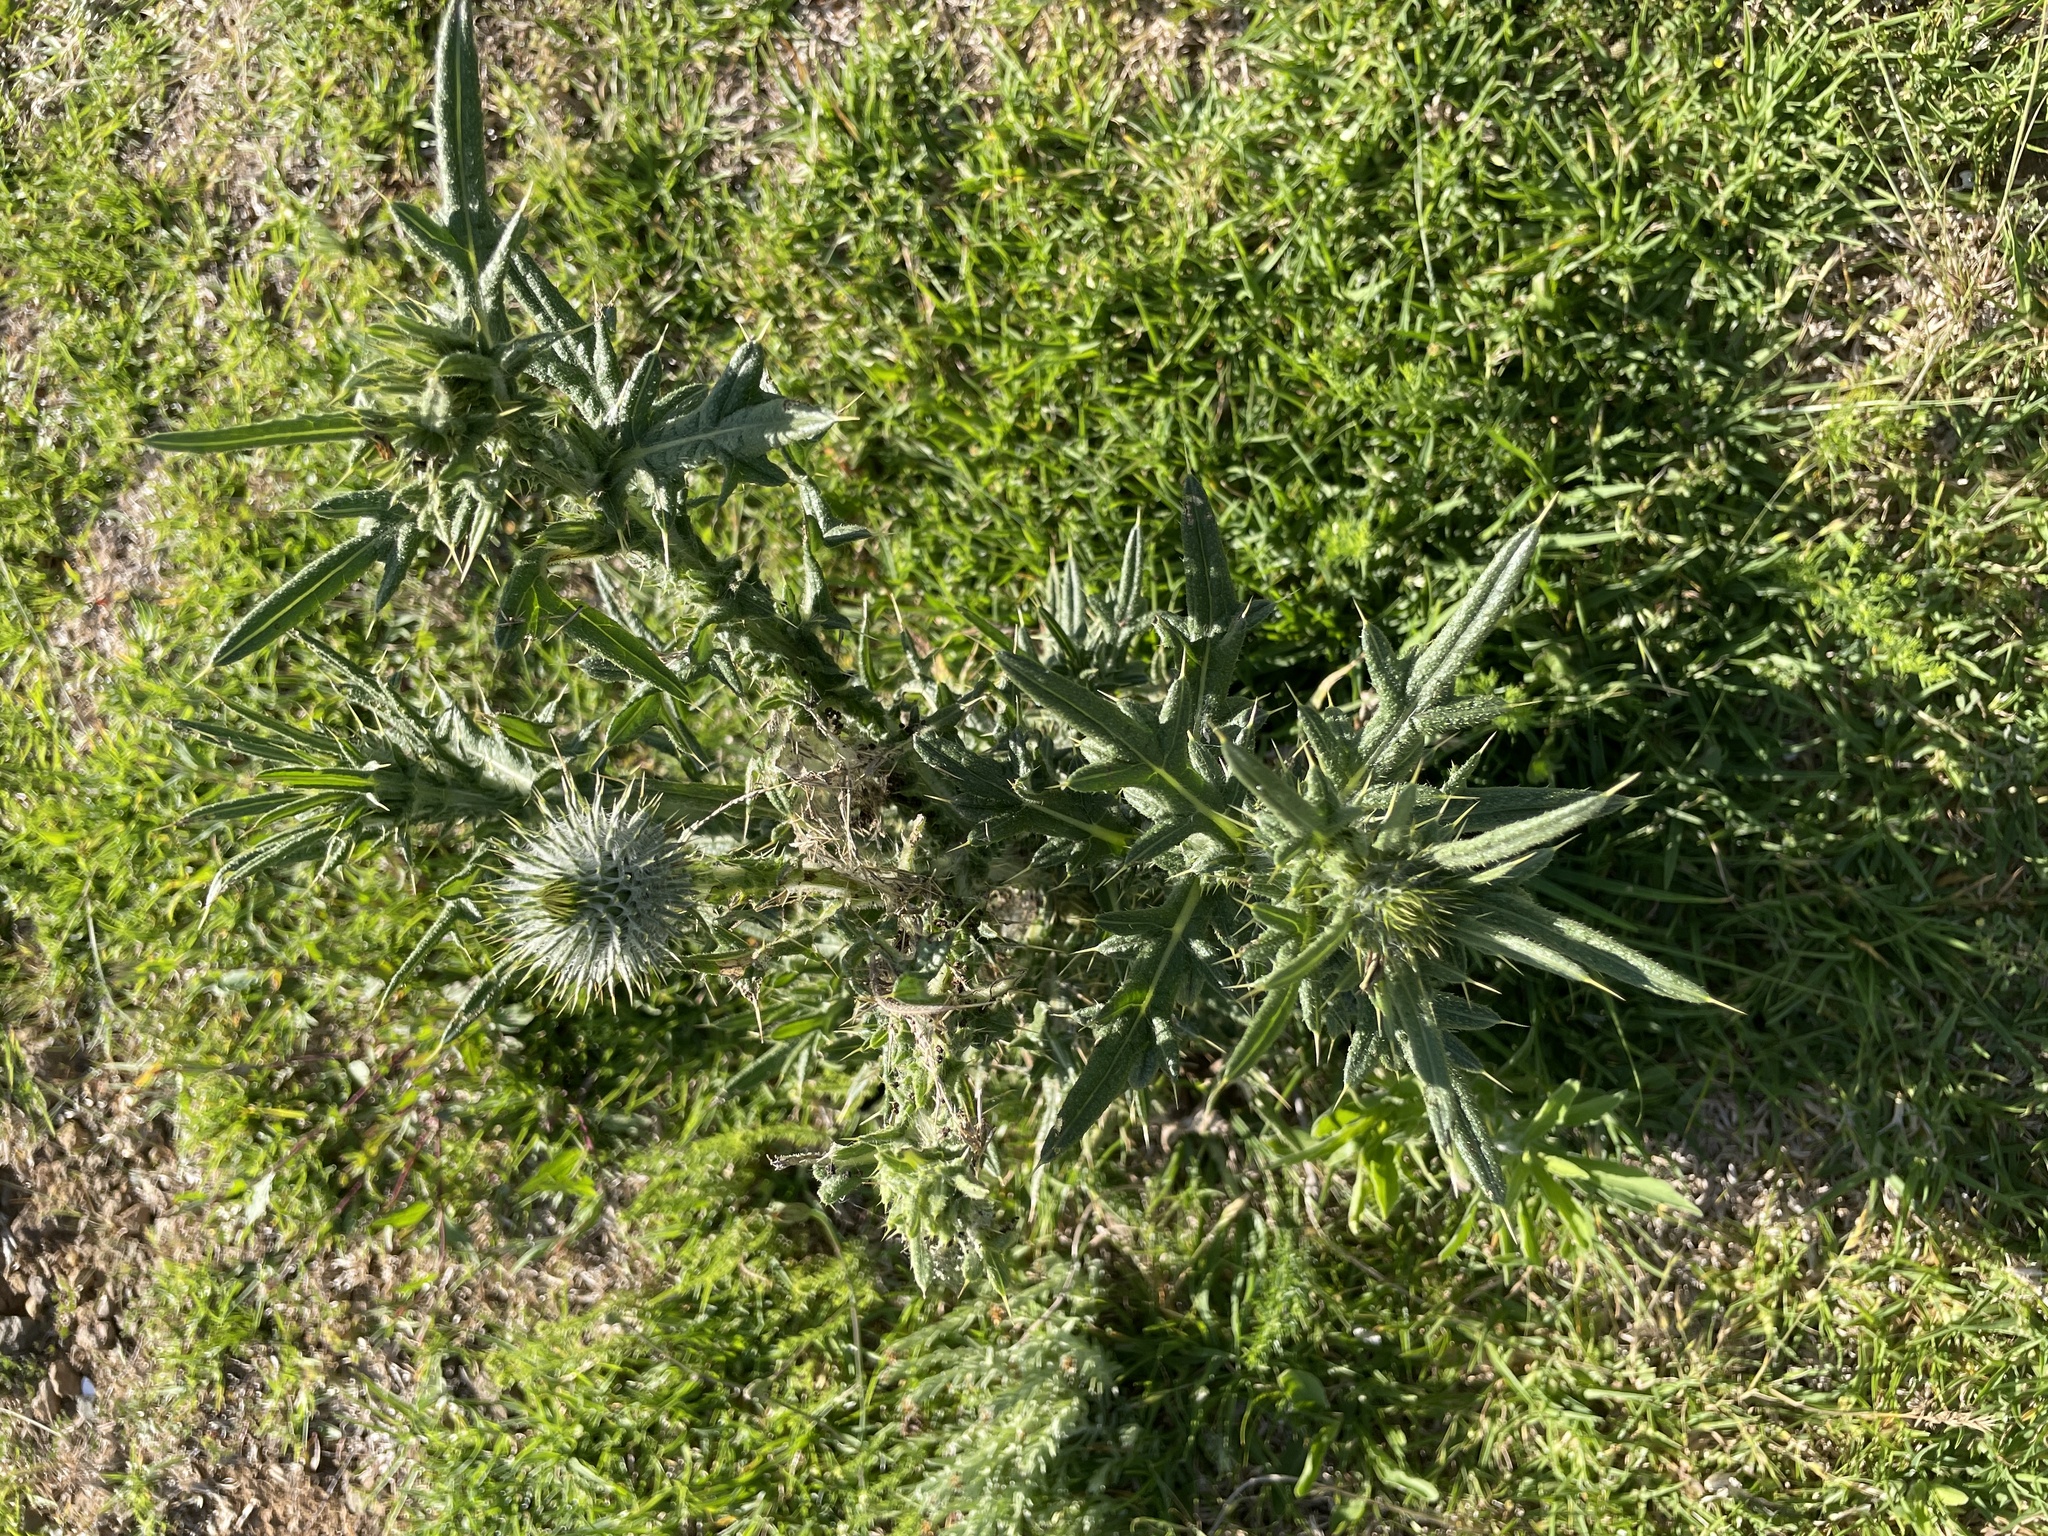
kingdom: Plantae
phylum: Tracheophyta
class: Magnoliopsida
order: Asterales
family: Asteraceae
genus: Cirsium
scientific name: Cirsium vulgare
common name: Bull thistle
